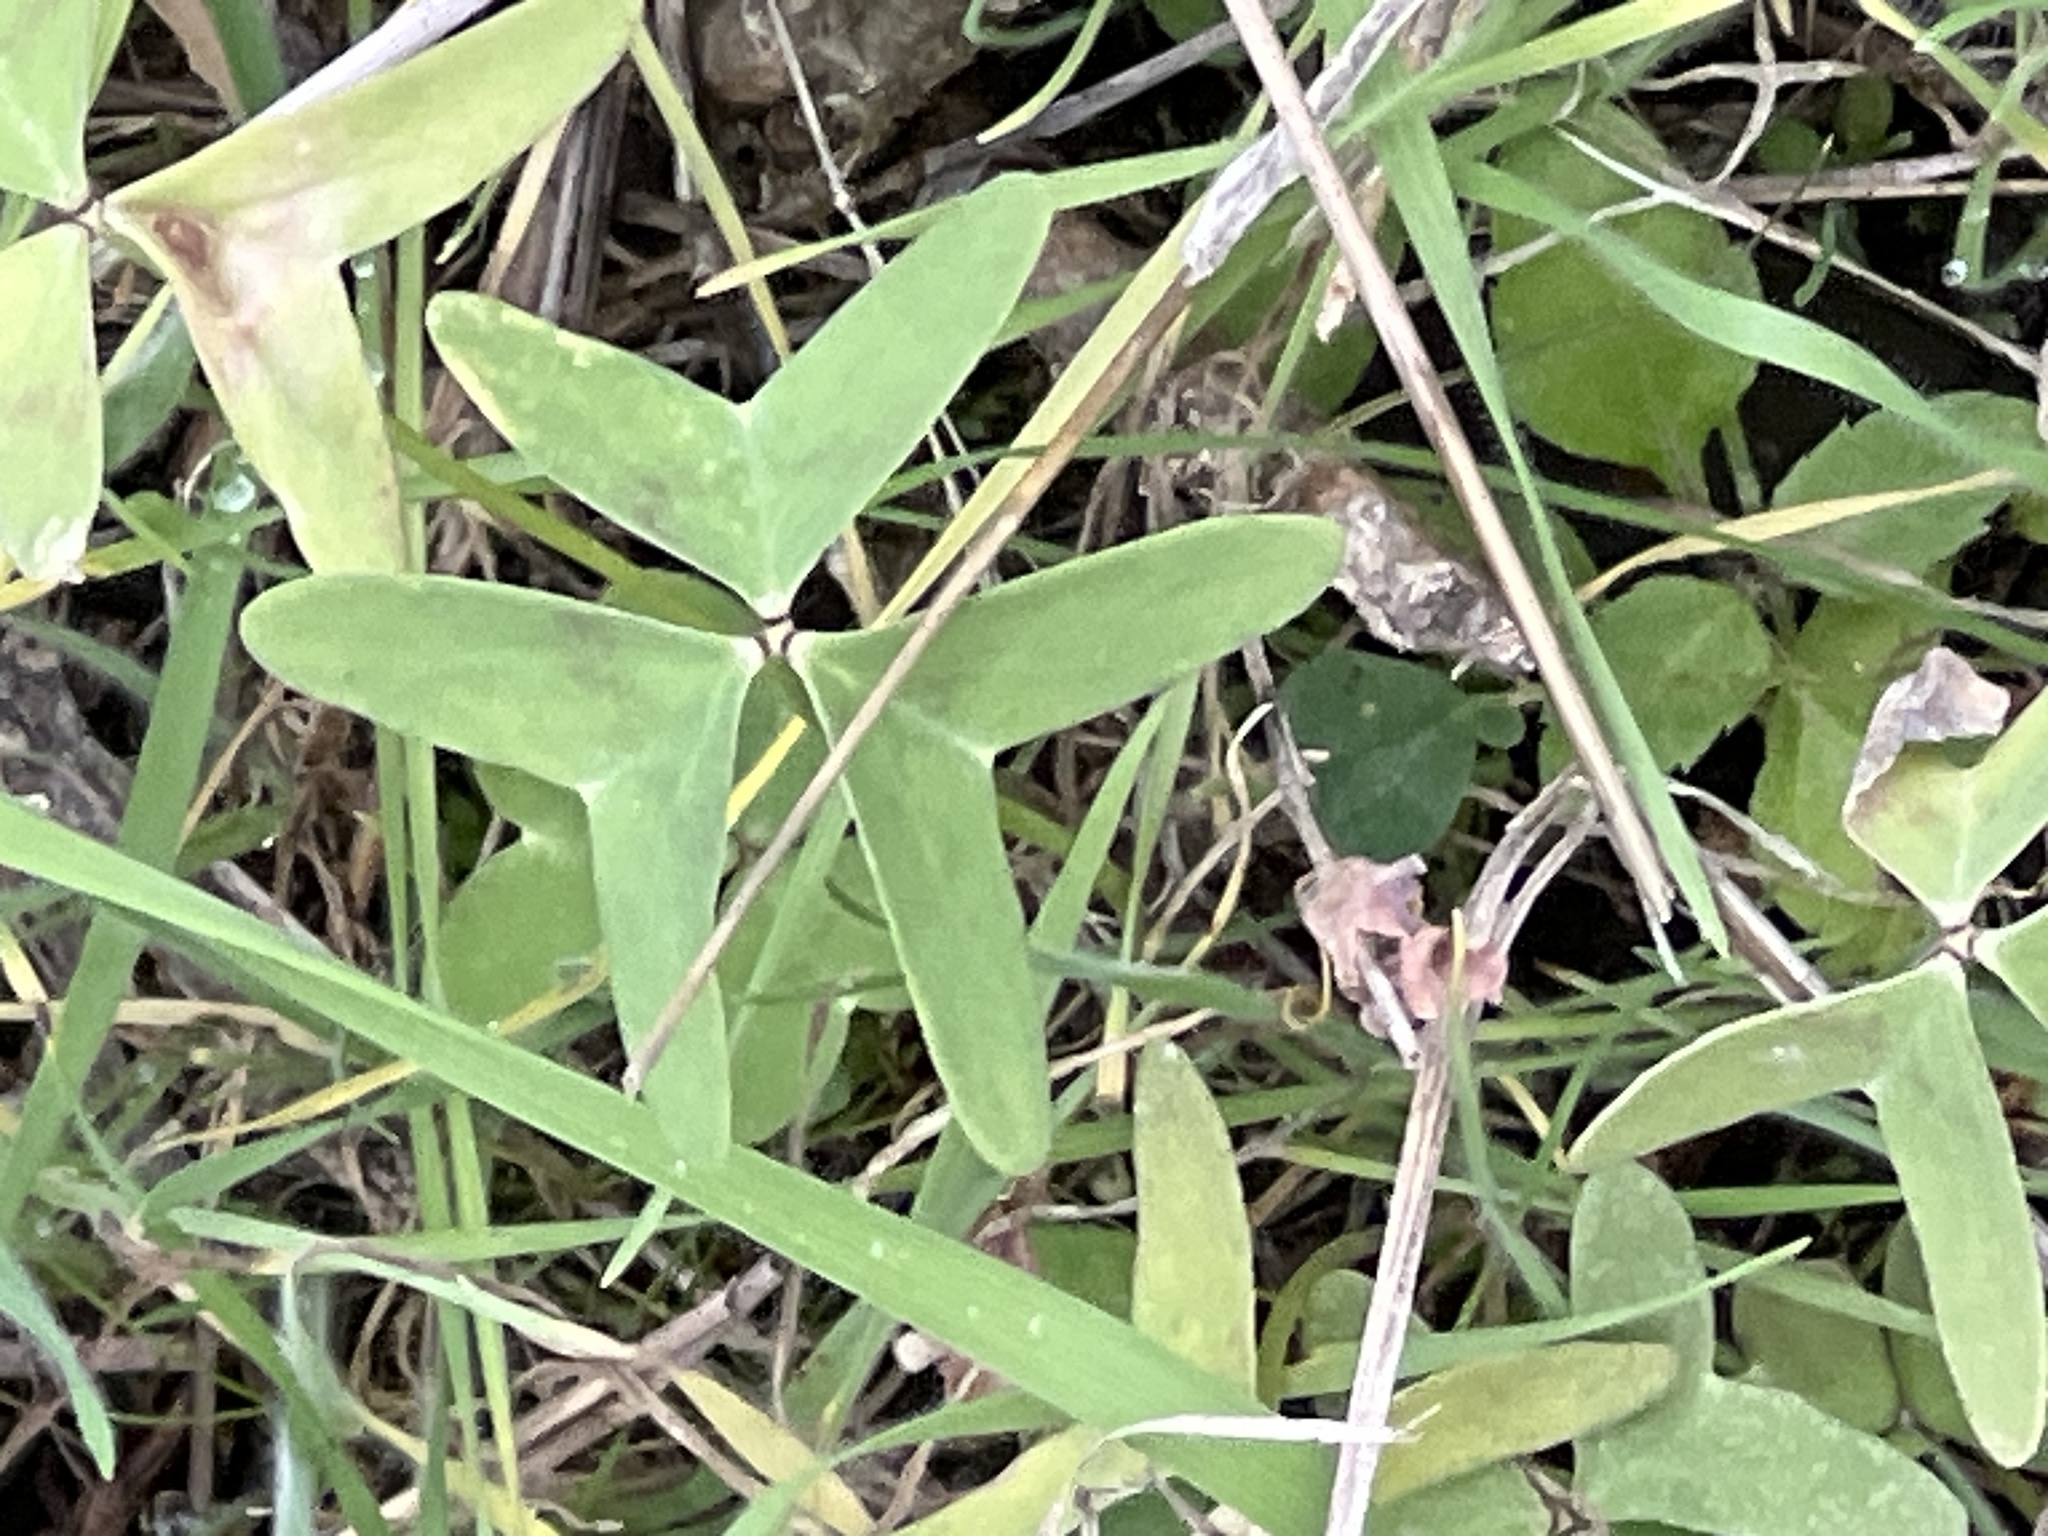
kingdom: Plantae
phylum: Tracheophyta
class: Magnoliopsida
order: Oxalidales
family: Oxalidaceae
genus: Oxalis
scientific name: Oxalis drummondii
